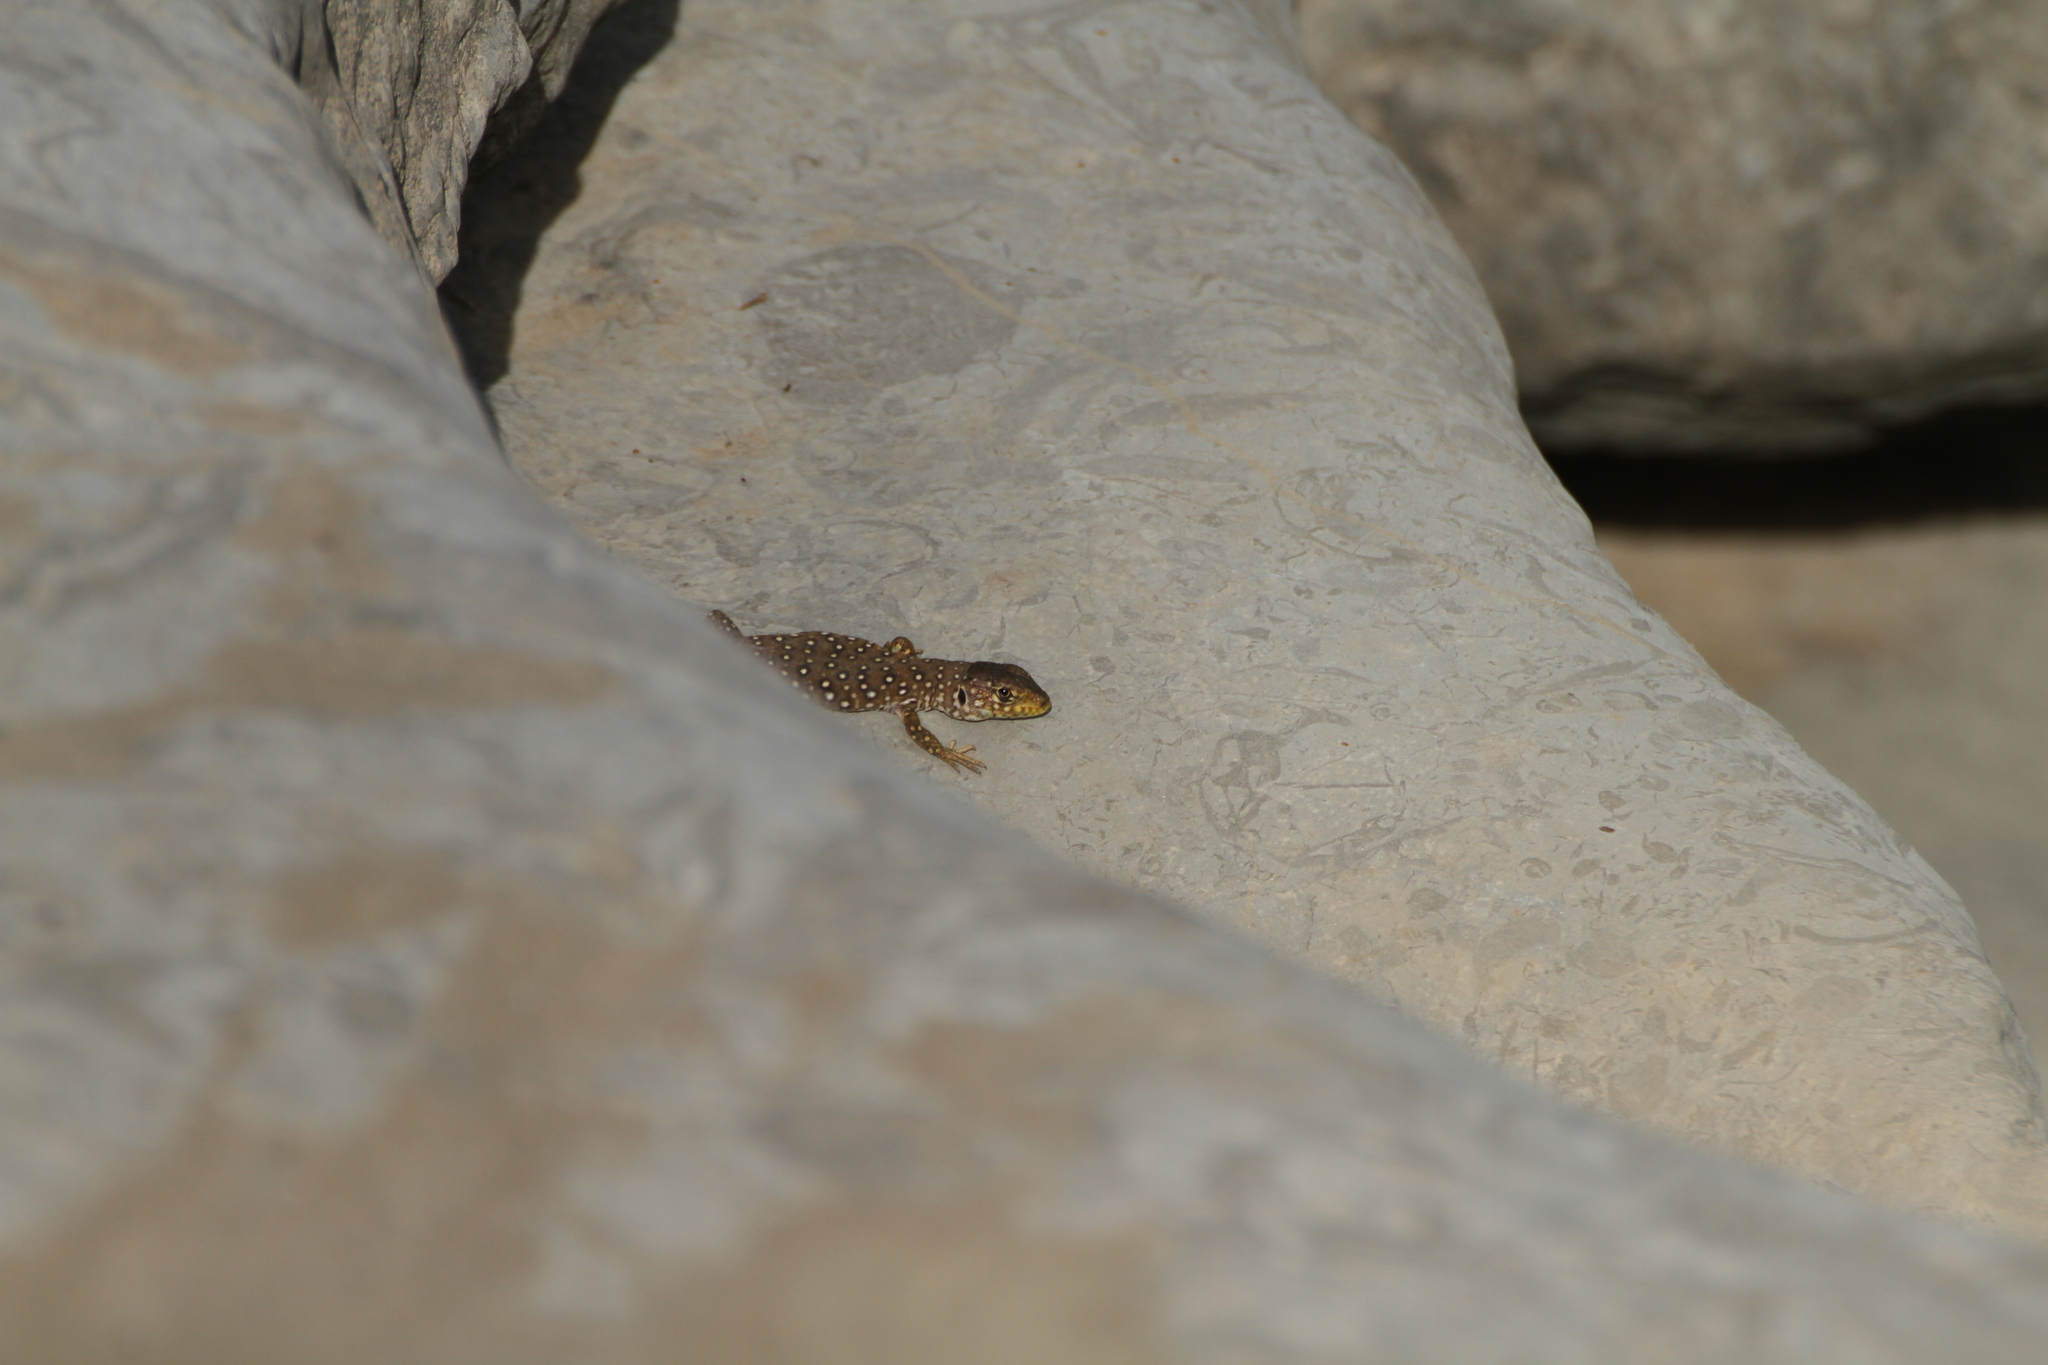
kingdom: Animalia
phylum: Chordata
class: Squamata
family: Lacertidae
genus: Timon
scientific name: Timon lepidus
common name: Ocellated lizard
